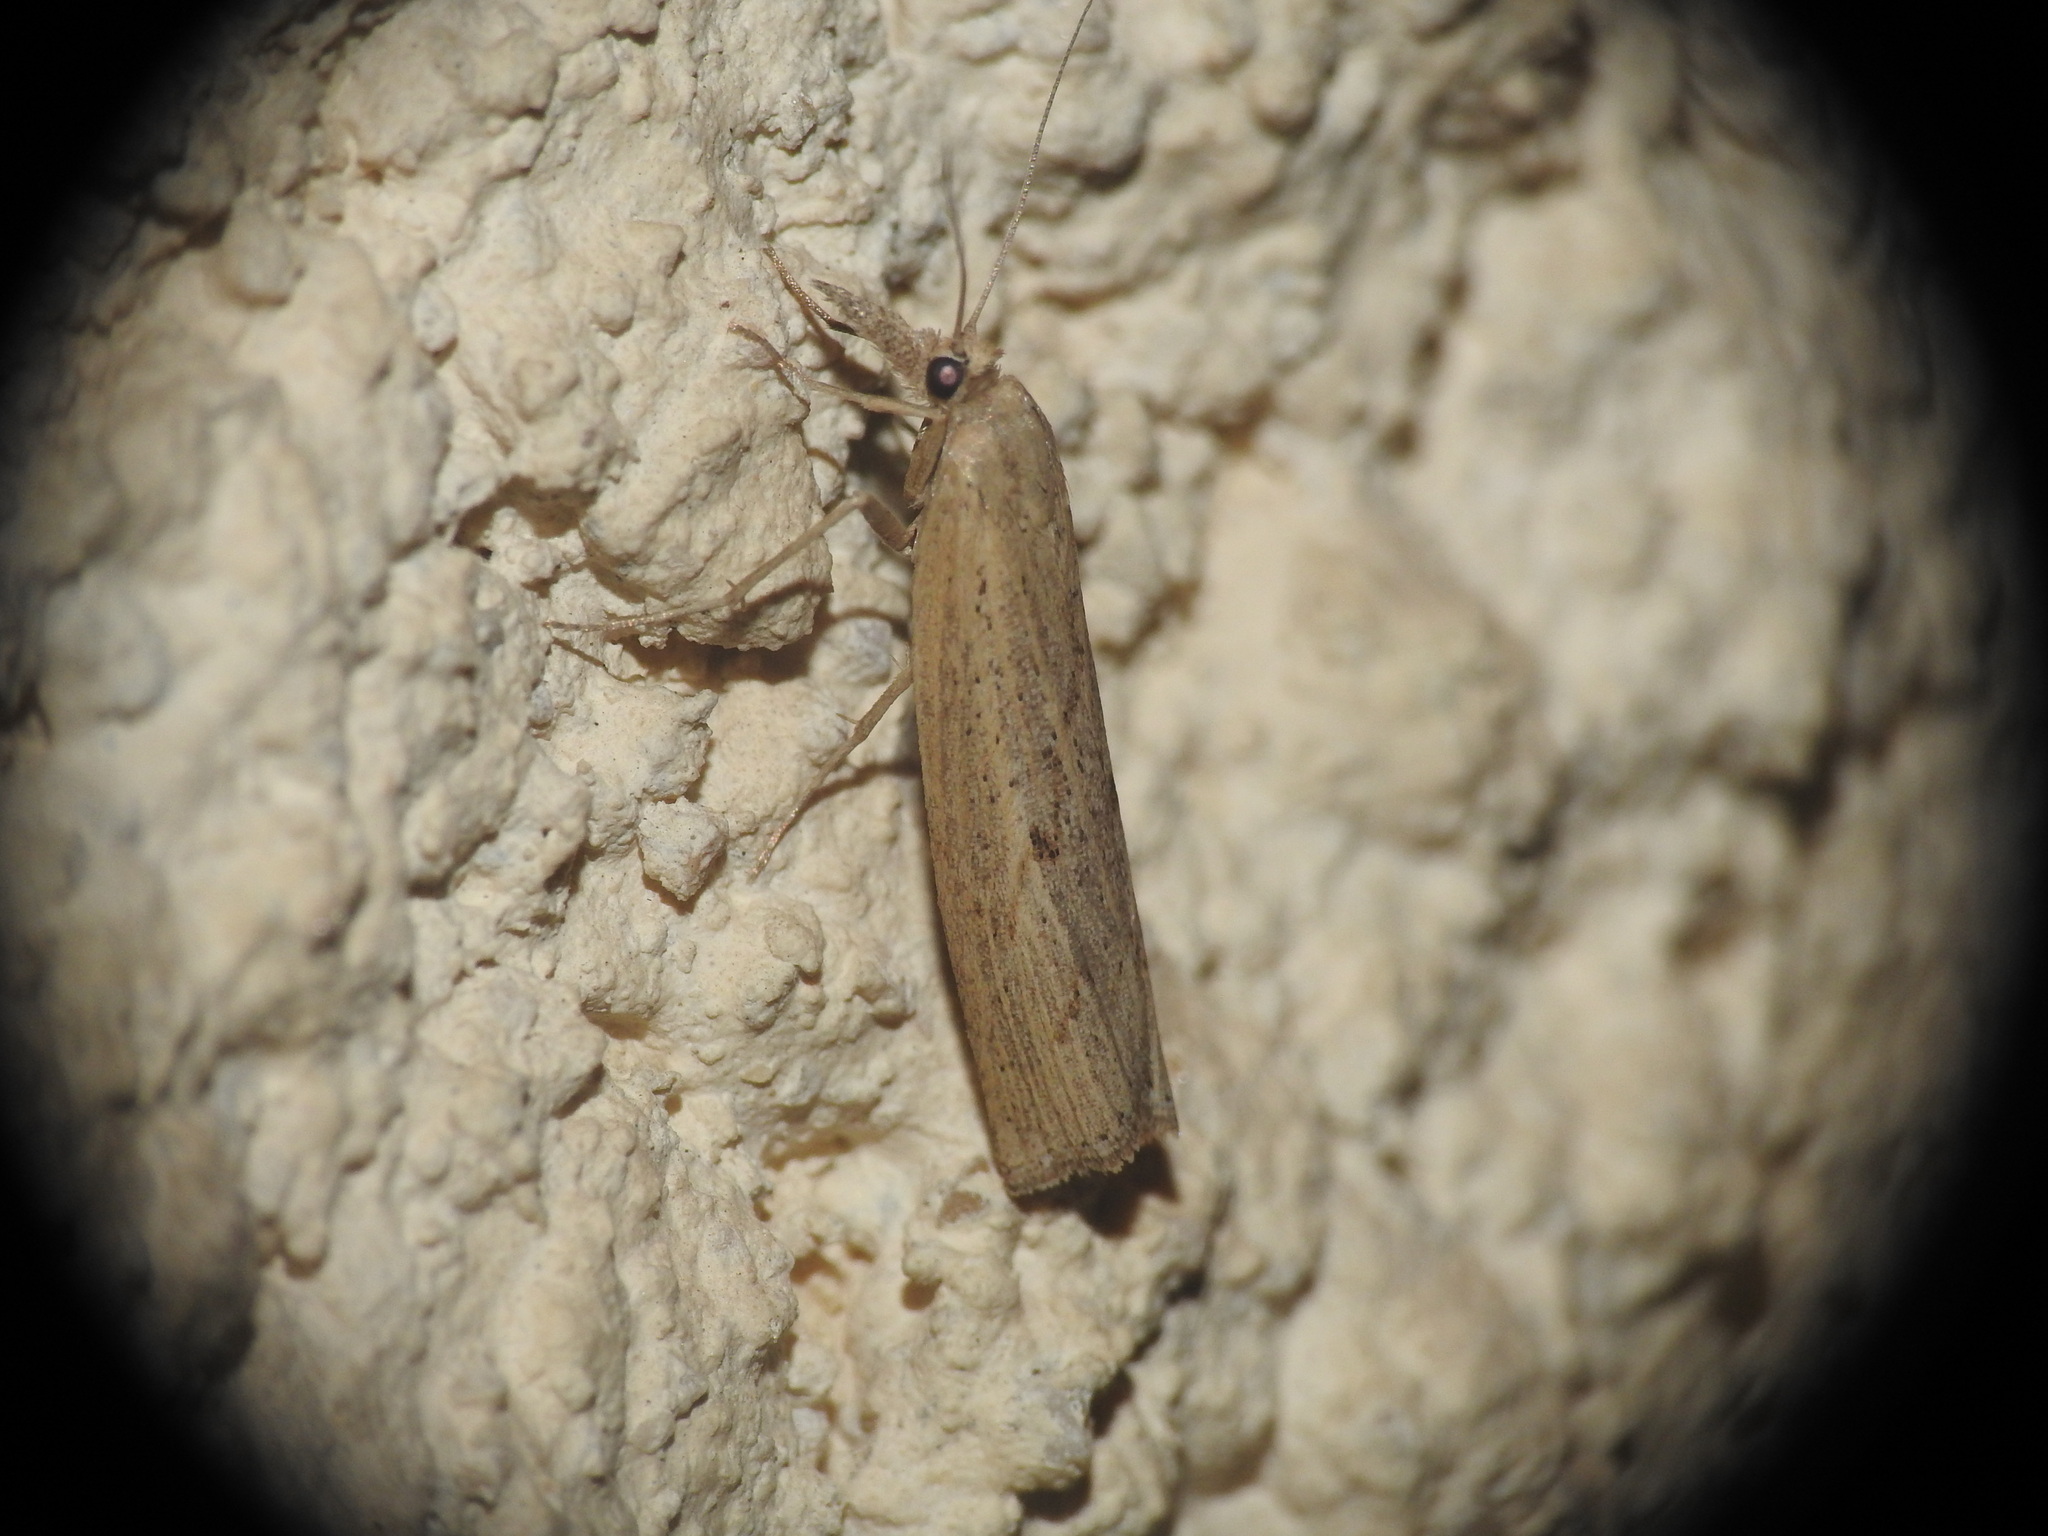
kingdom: Animalia
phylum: Arthropoda
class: Insecta
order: Lepidoptera
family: Crambidae
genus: Pediasia
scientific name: Pediasia contaminella
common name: Waste grass-veneer
